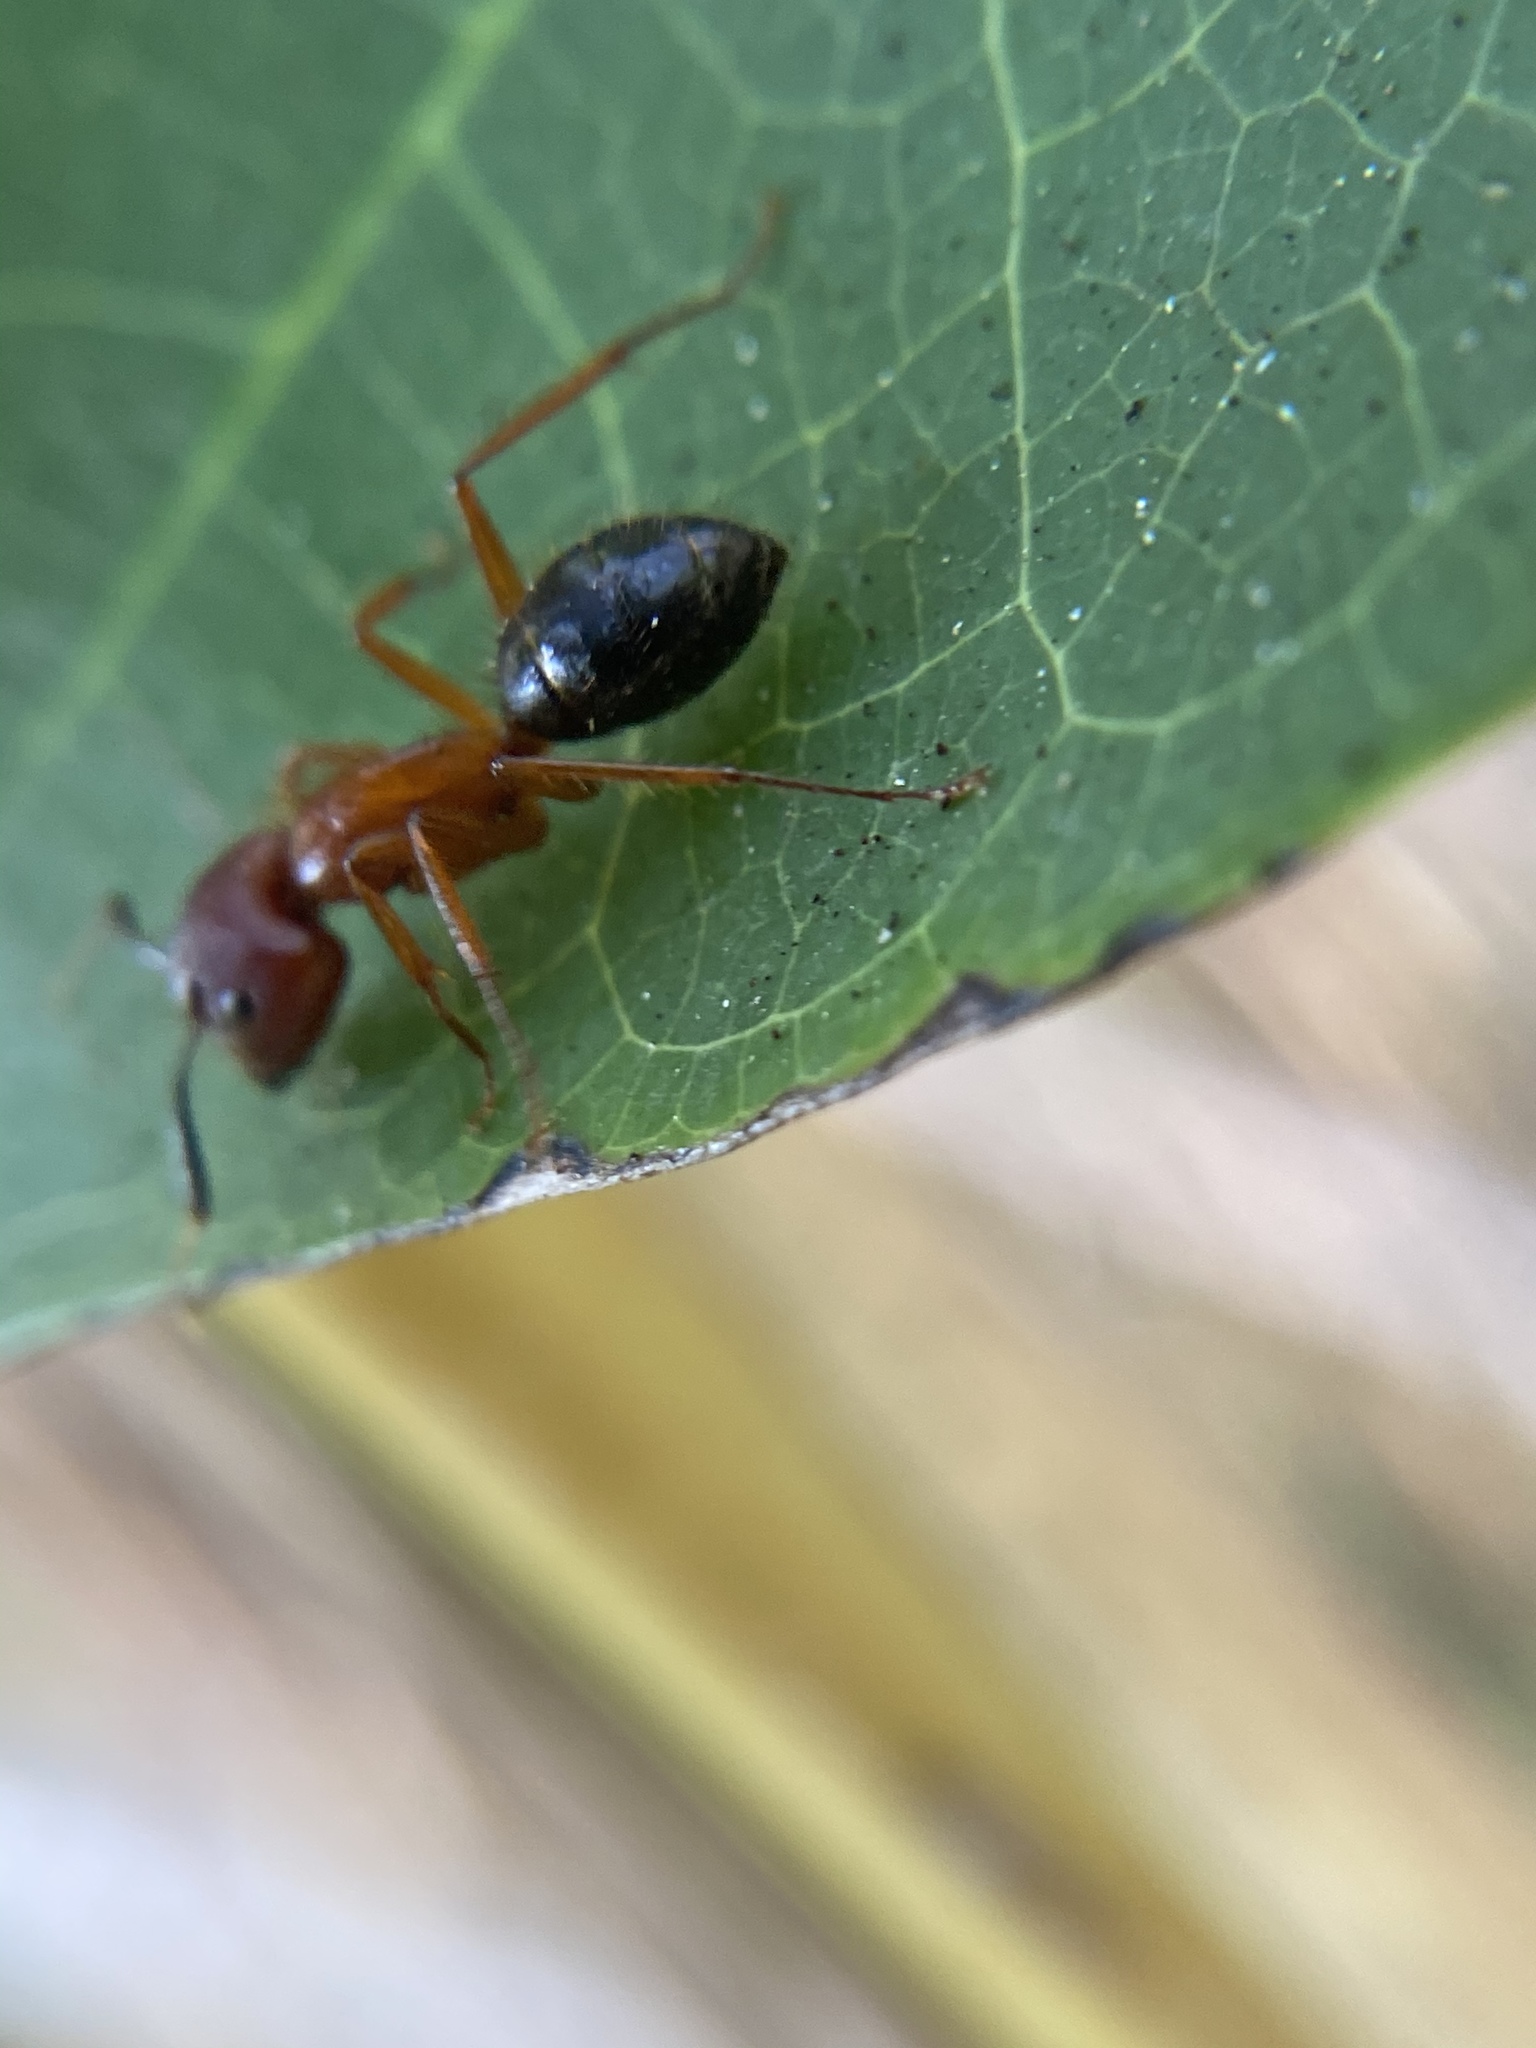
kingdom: Animalia
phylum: Arthropoda
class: Insecta
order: Hymenoptera
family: Formicidae
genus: Camponotus
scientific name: Camponotus floridanus
